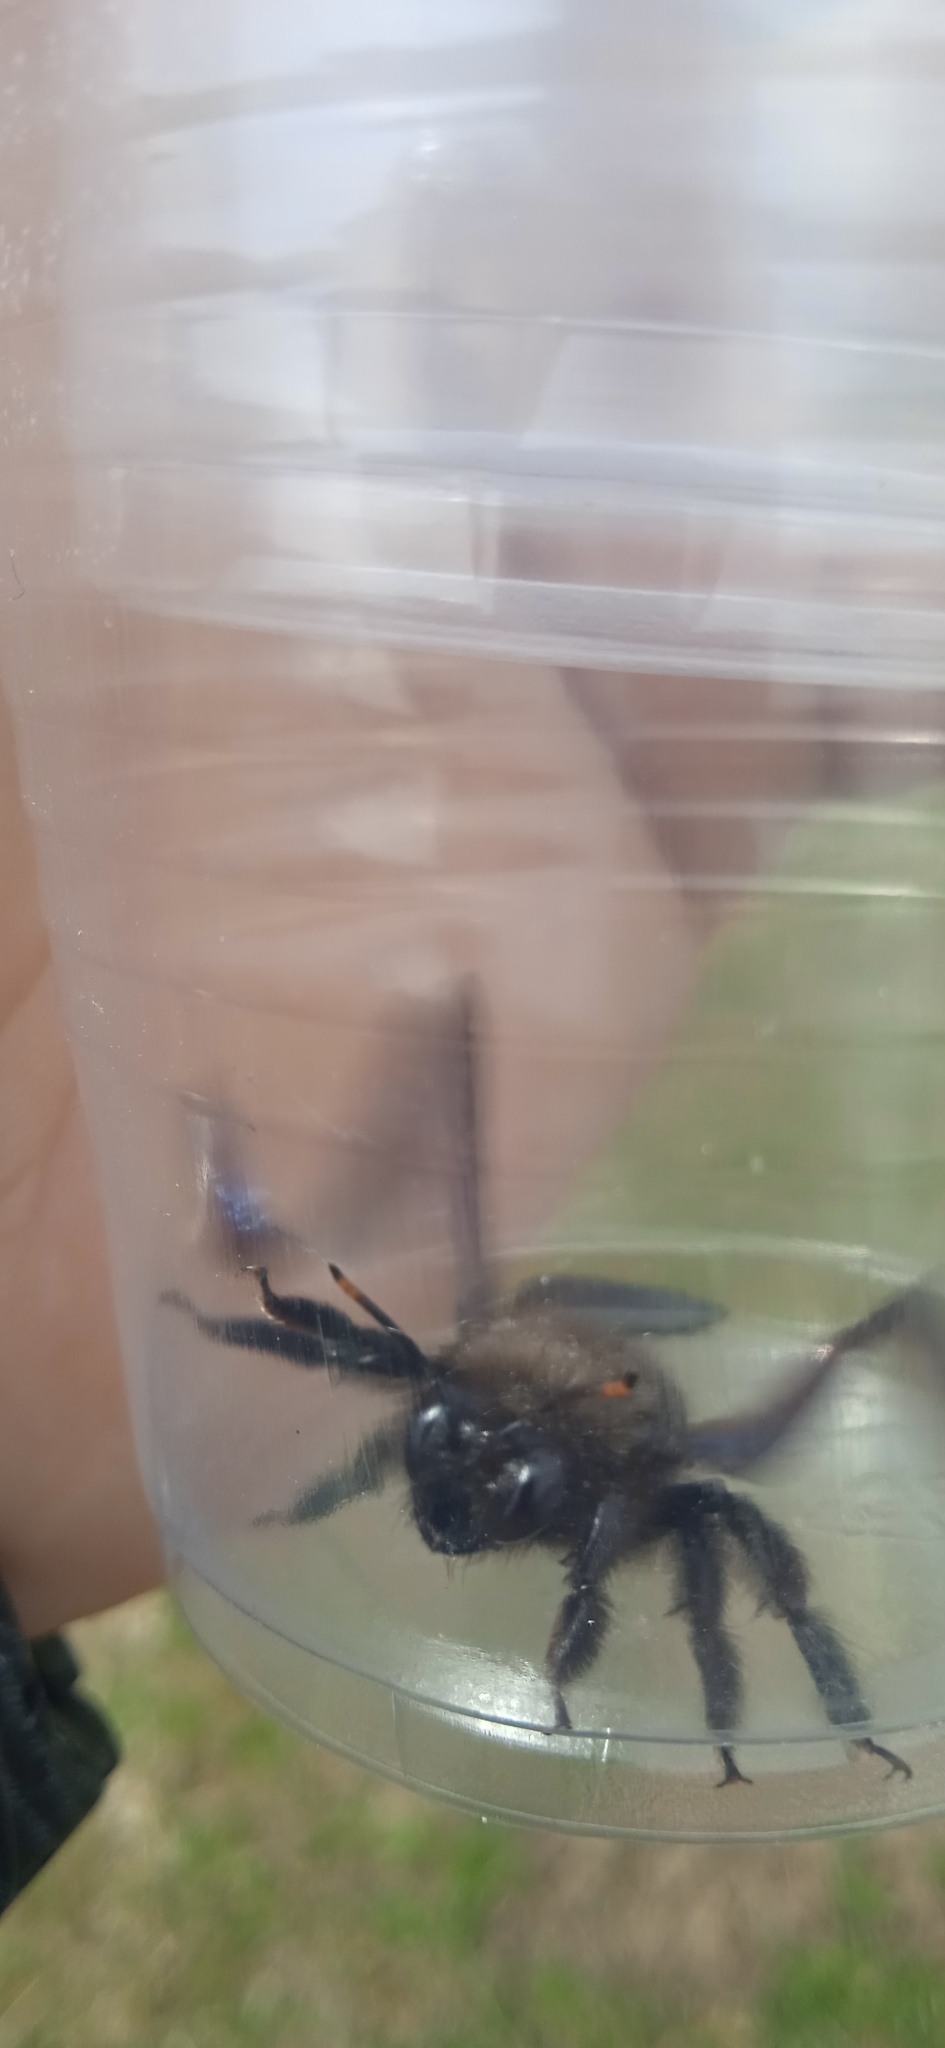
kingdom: Animalia
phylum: Arthropoda
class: Insecta
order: Hymenoptera
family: Apidae
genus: Xylocopa
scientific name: Xylocopa violacea
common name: Violet carpenter bee
